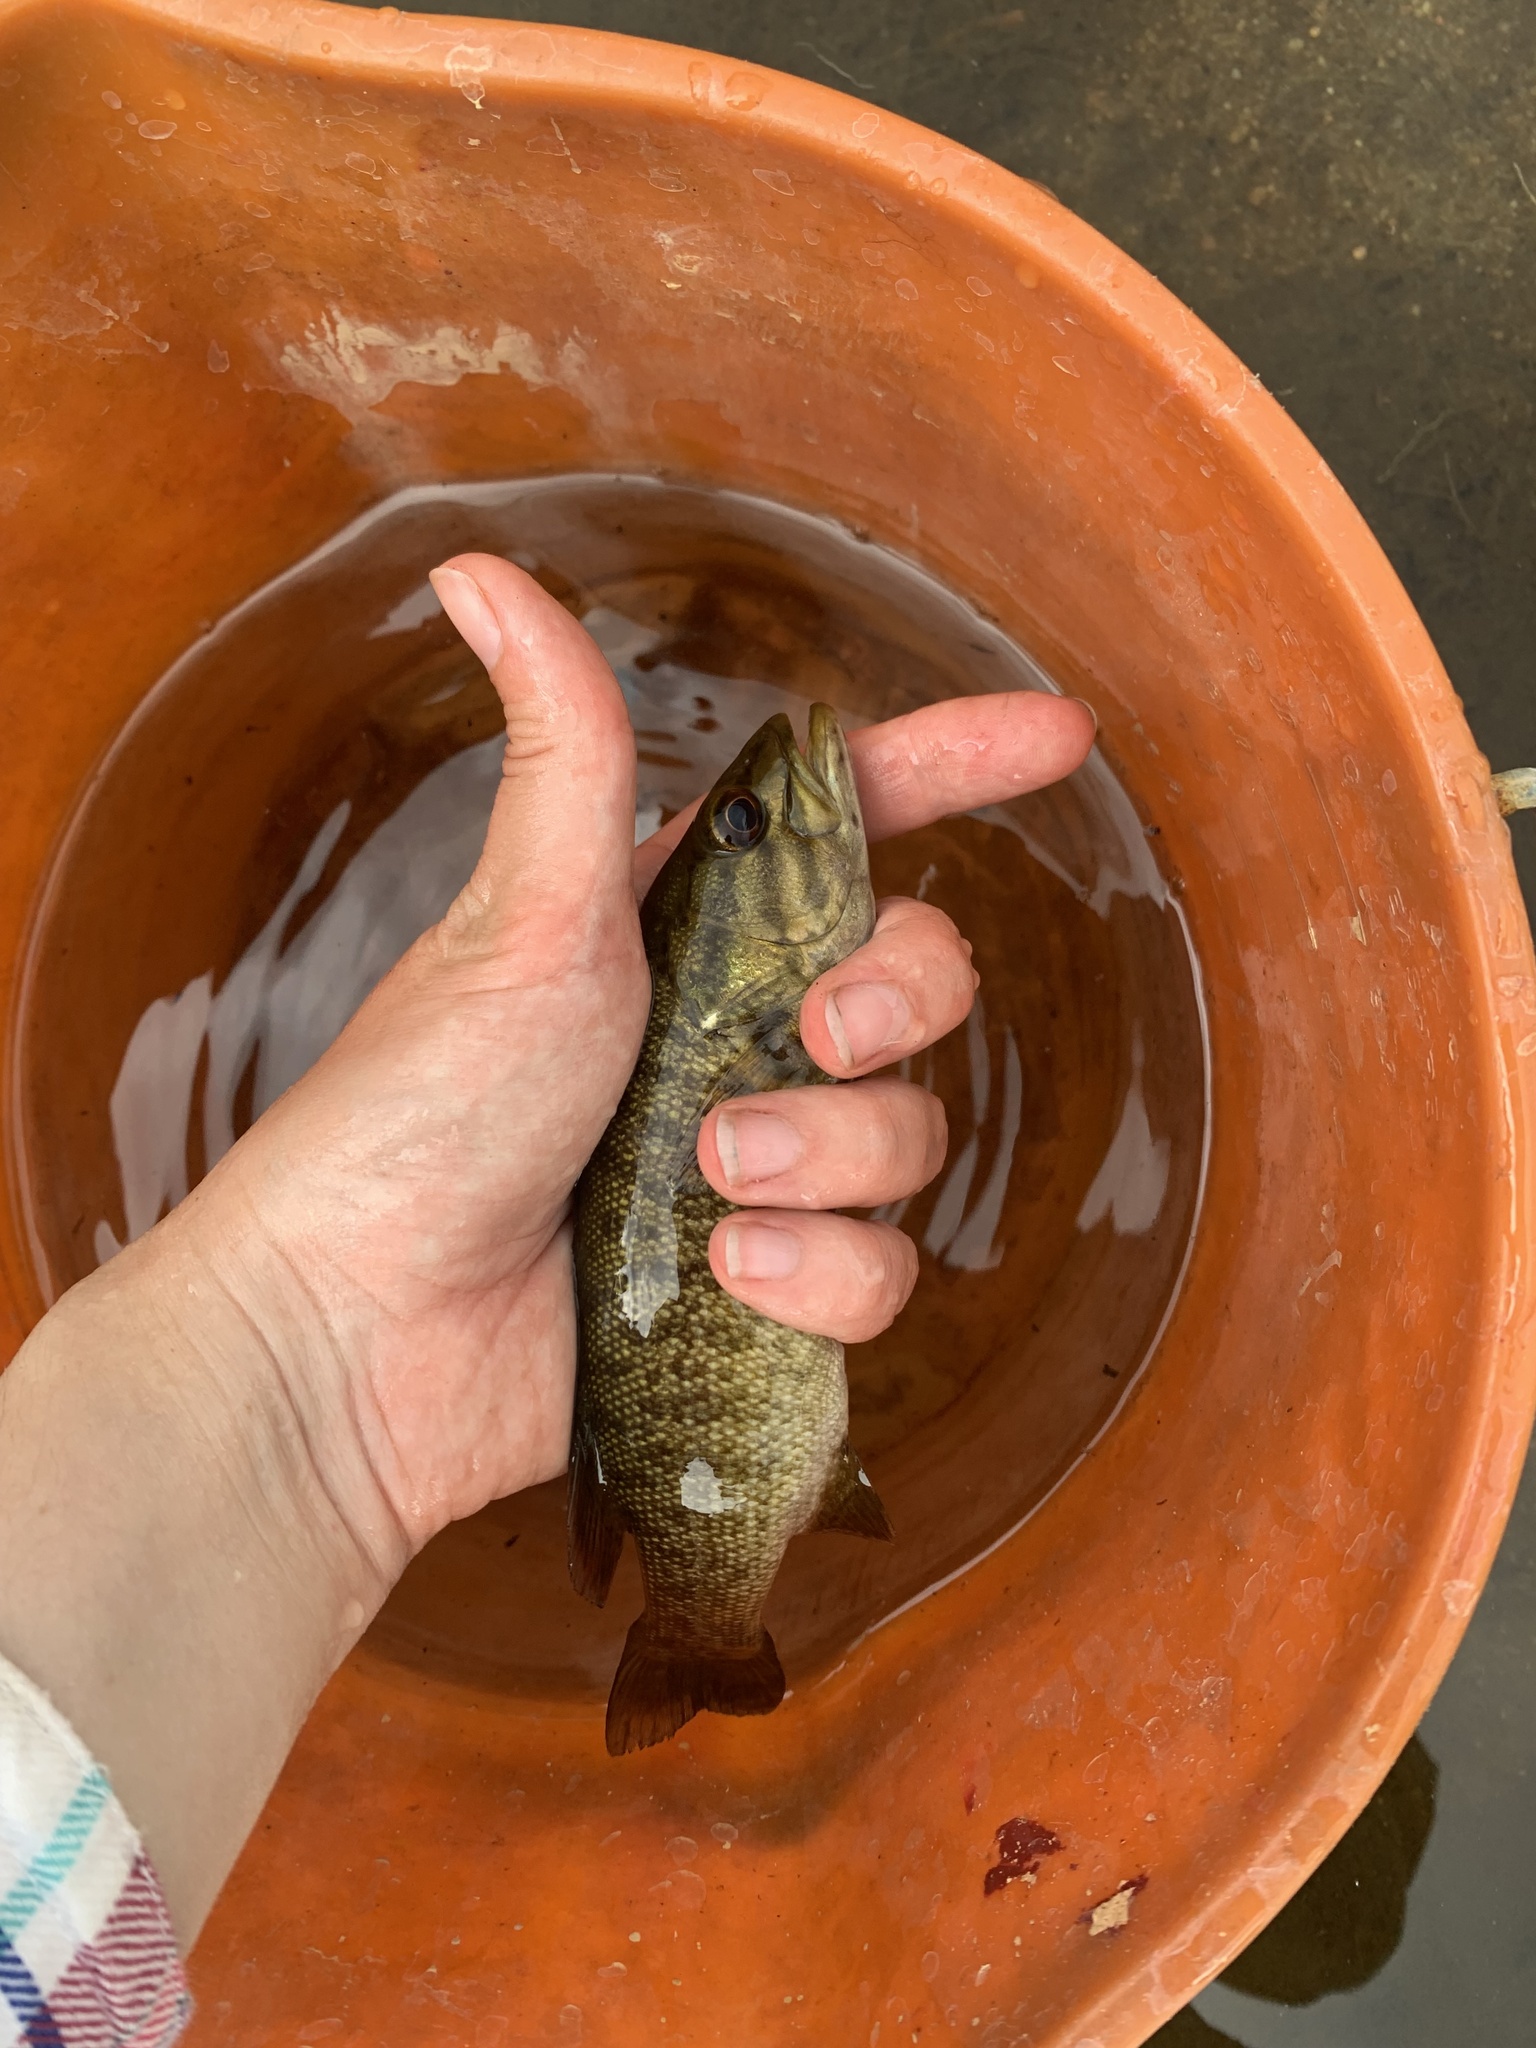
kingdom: Animalia
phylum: Chordata
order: Perciformes
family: Centrarchidae
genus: Micropterus
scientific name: Micropterus dolomieu
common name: Smallmouth bass
